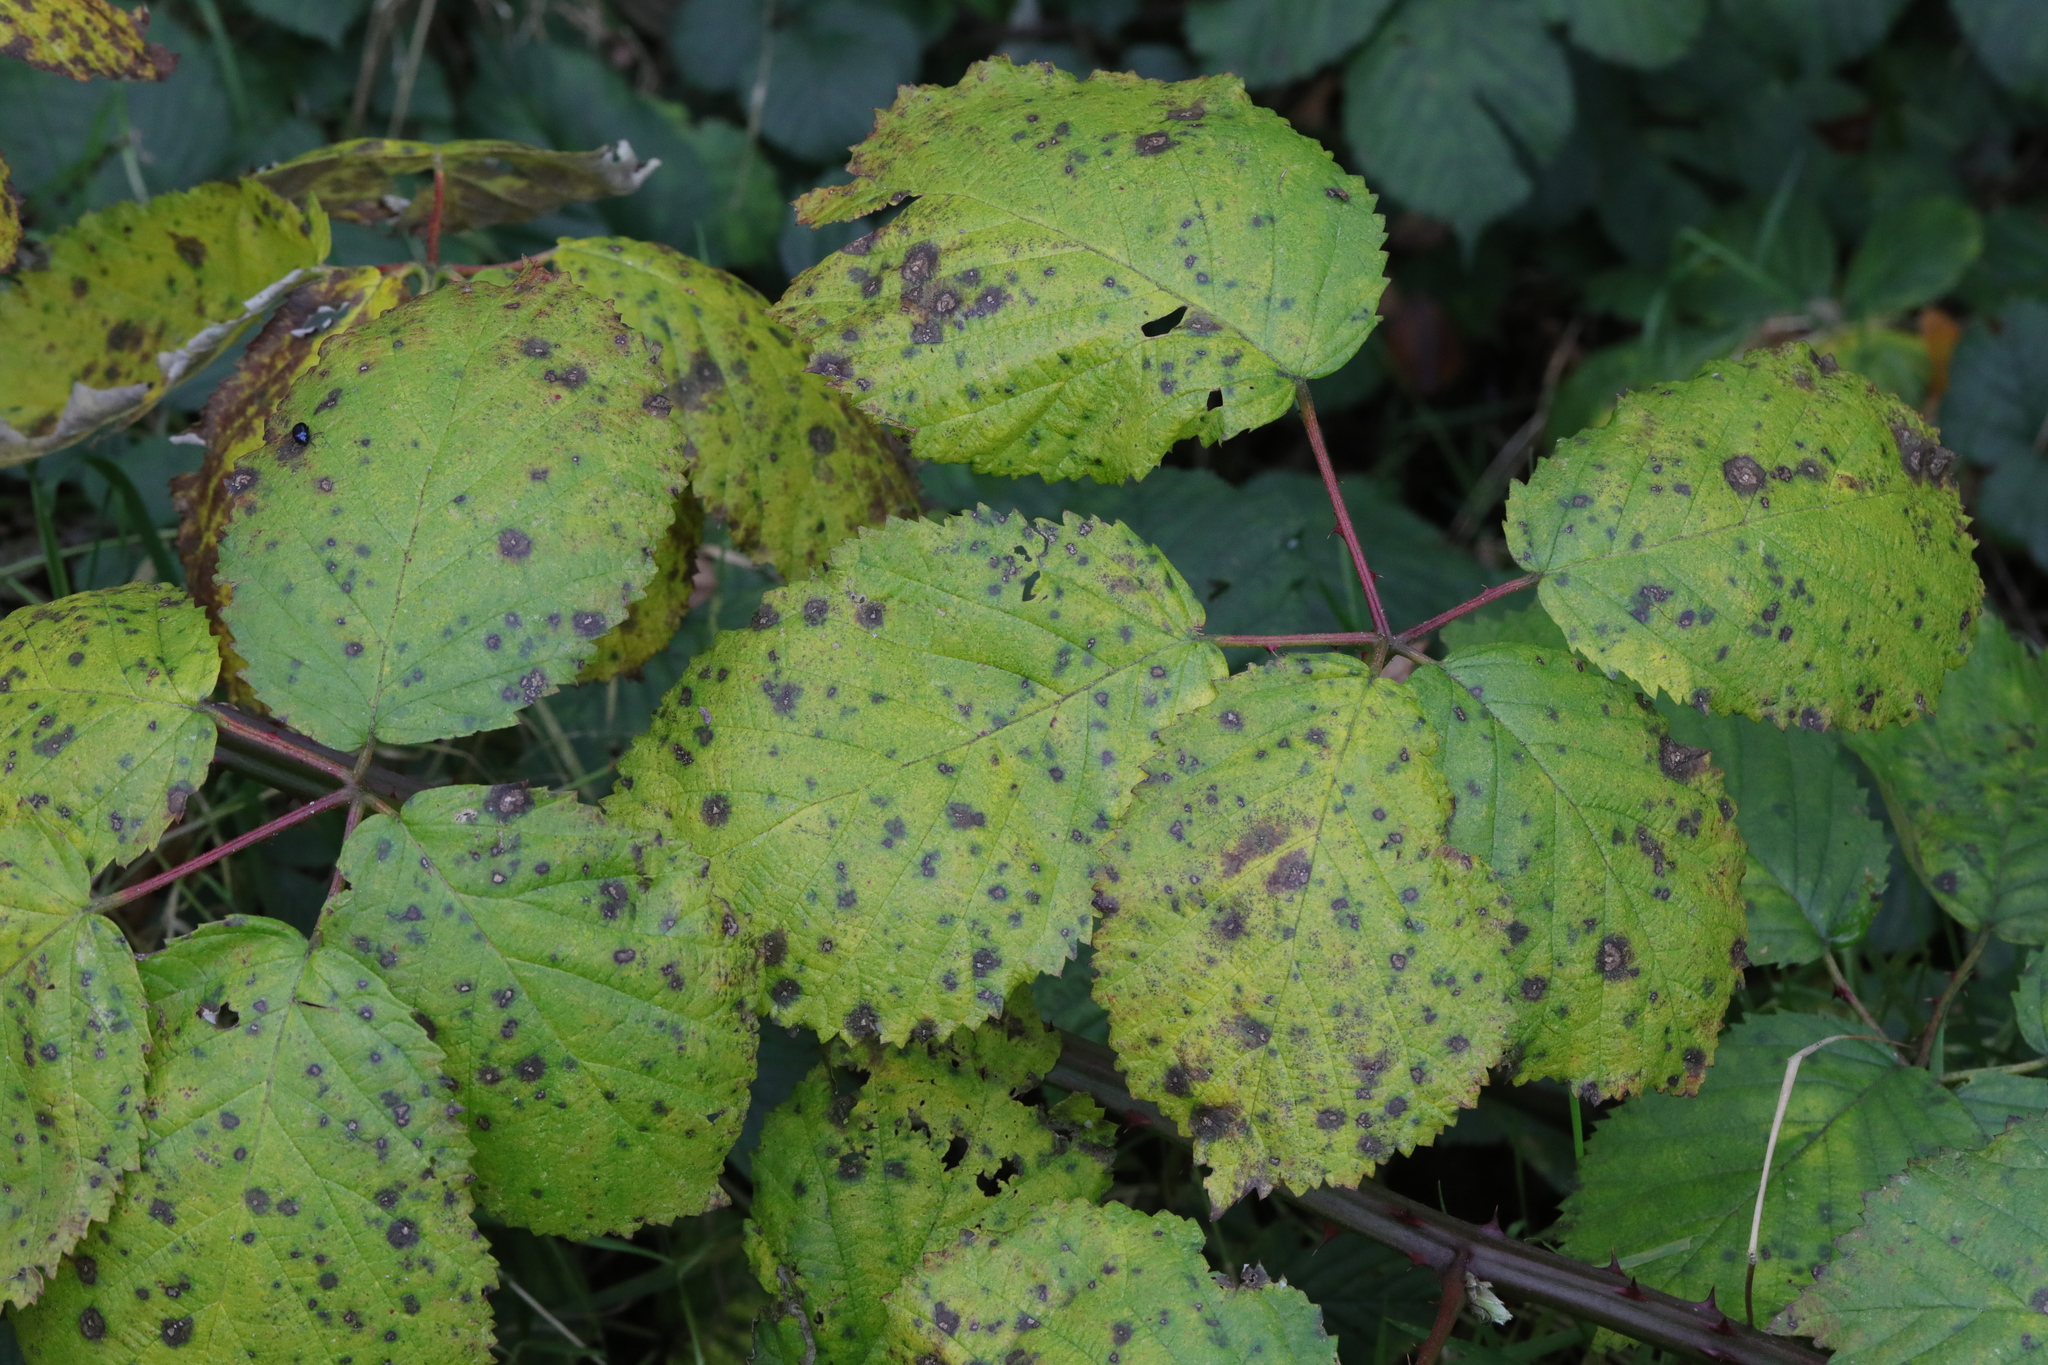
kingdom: Plantae
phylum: Tracheophyta
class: Magnoliopsida
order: Rosales
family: Rosaceae
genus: Rubus
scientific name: Rubus armeniacus
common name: Himalayan blackberry
